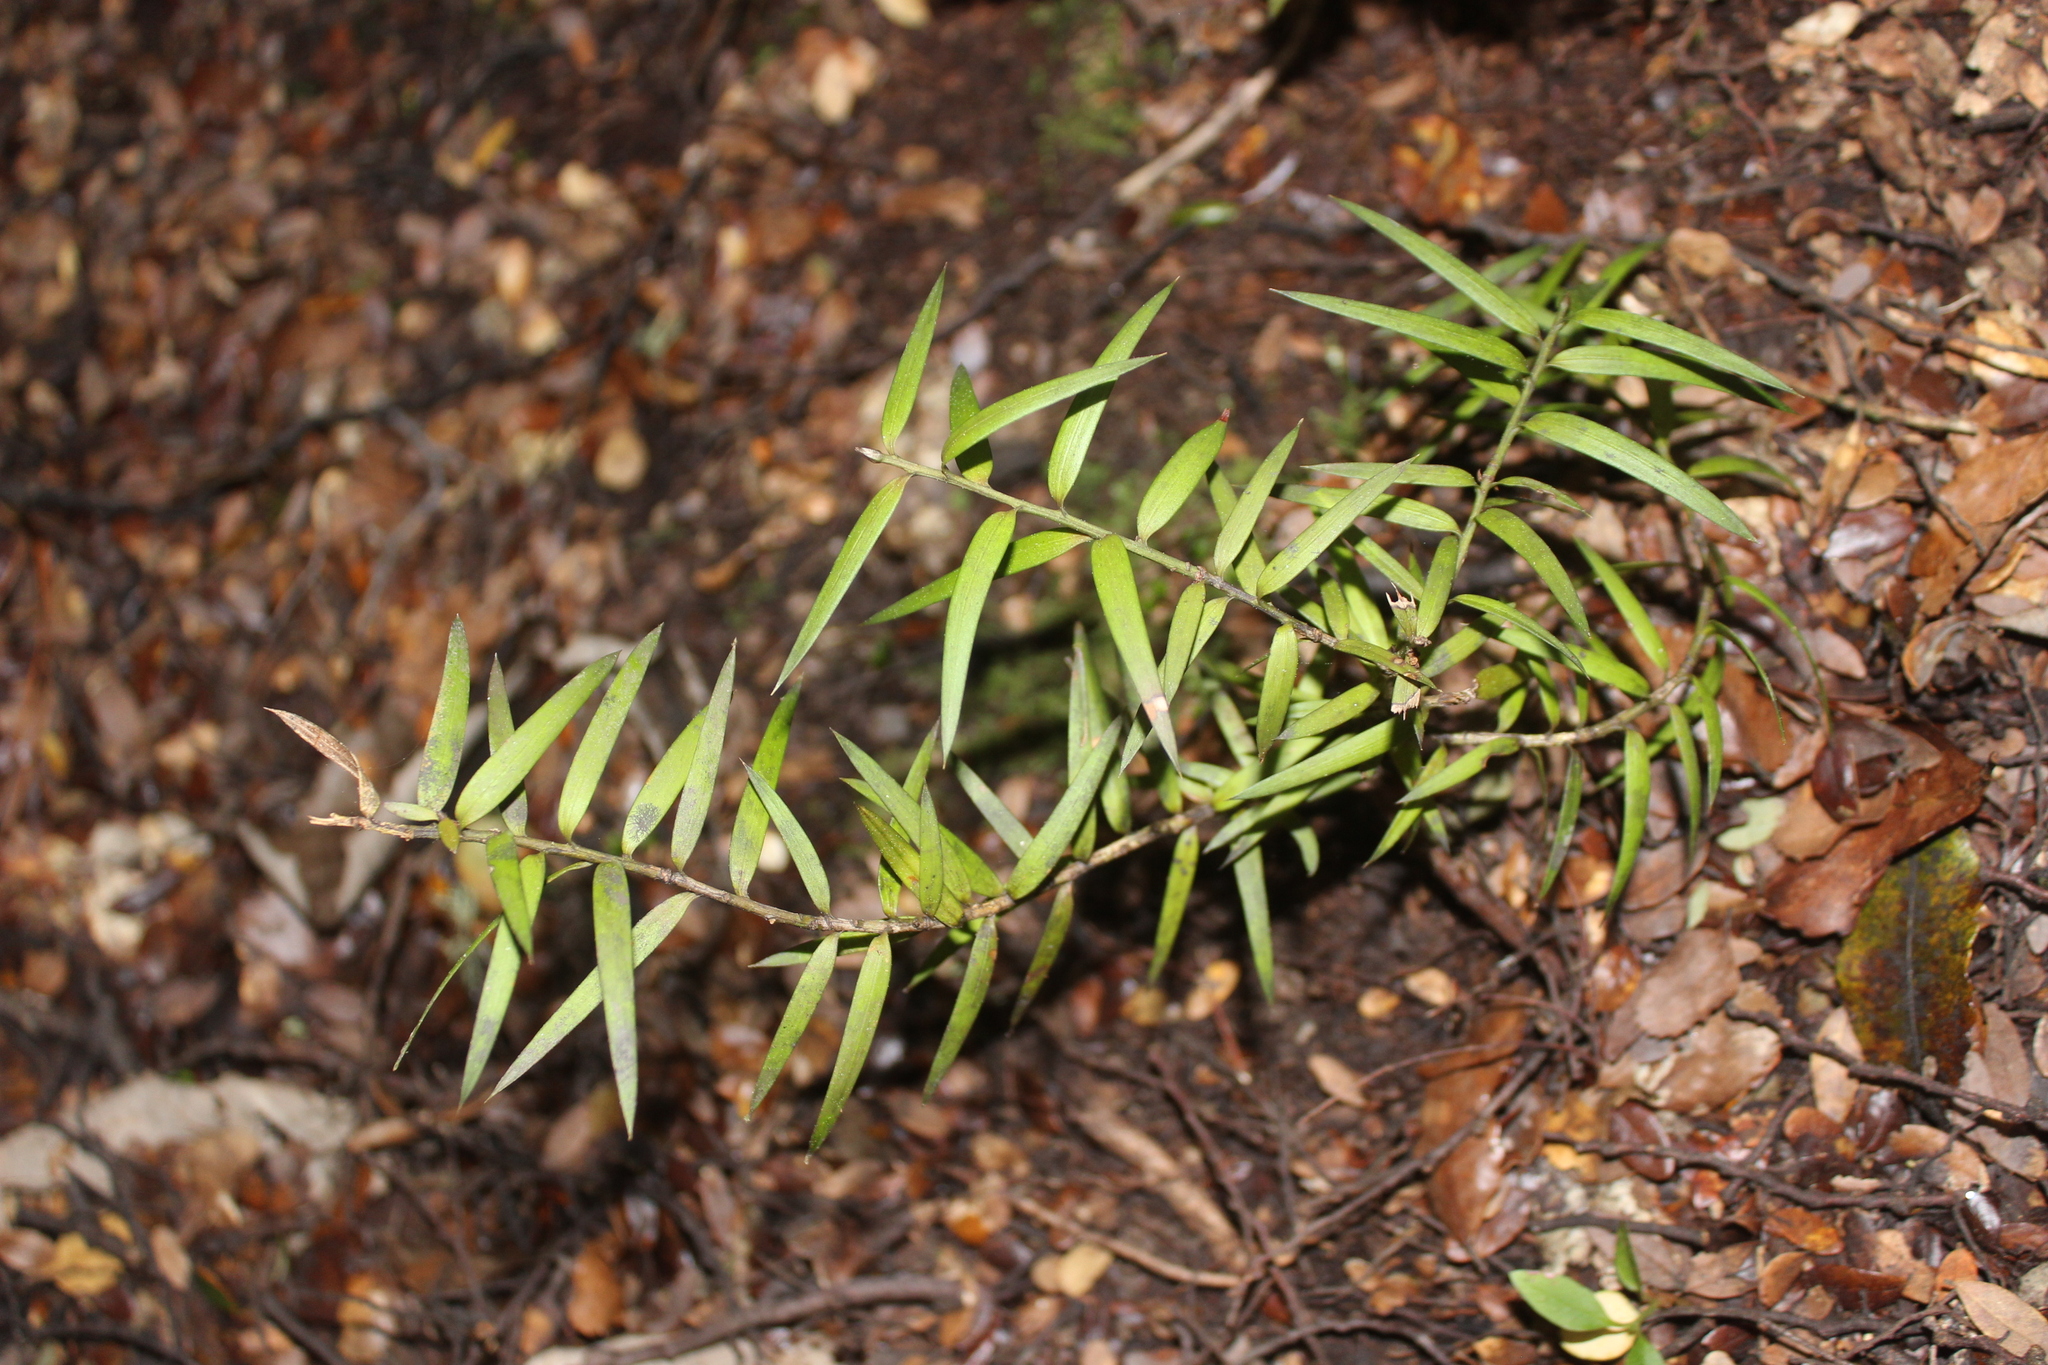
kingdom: Plantae
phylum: Tracheophyta
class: Pinopsida
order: Pinales
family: Podocarpaceae
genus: Podocarpus
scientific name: Podocarpus laetus
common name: Hall's totara
